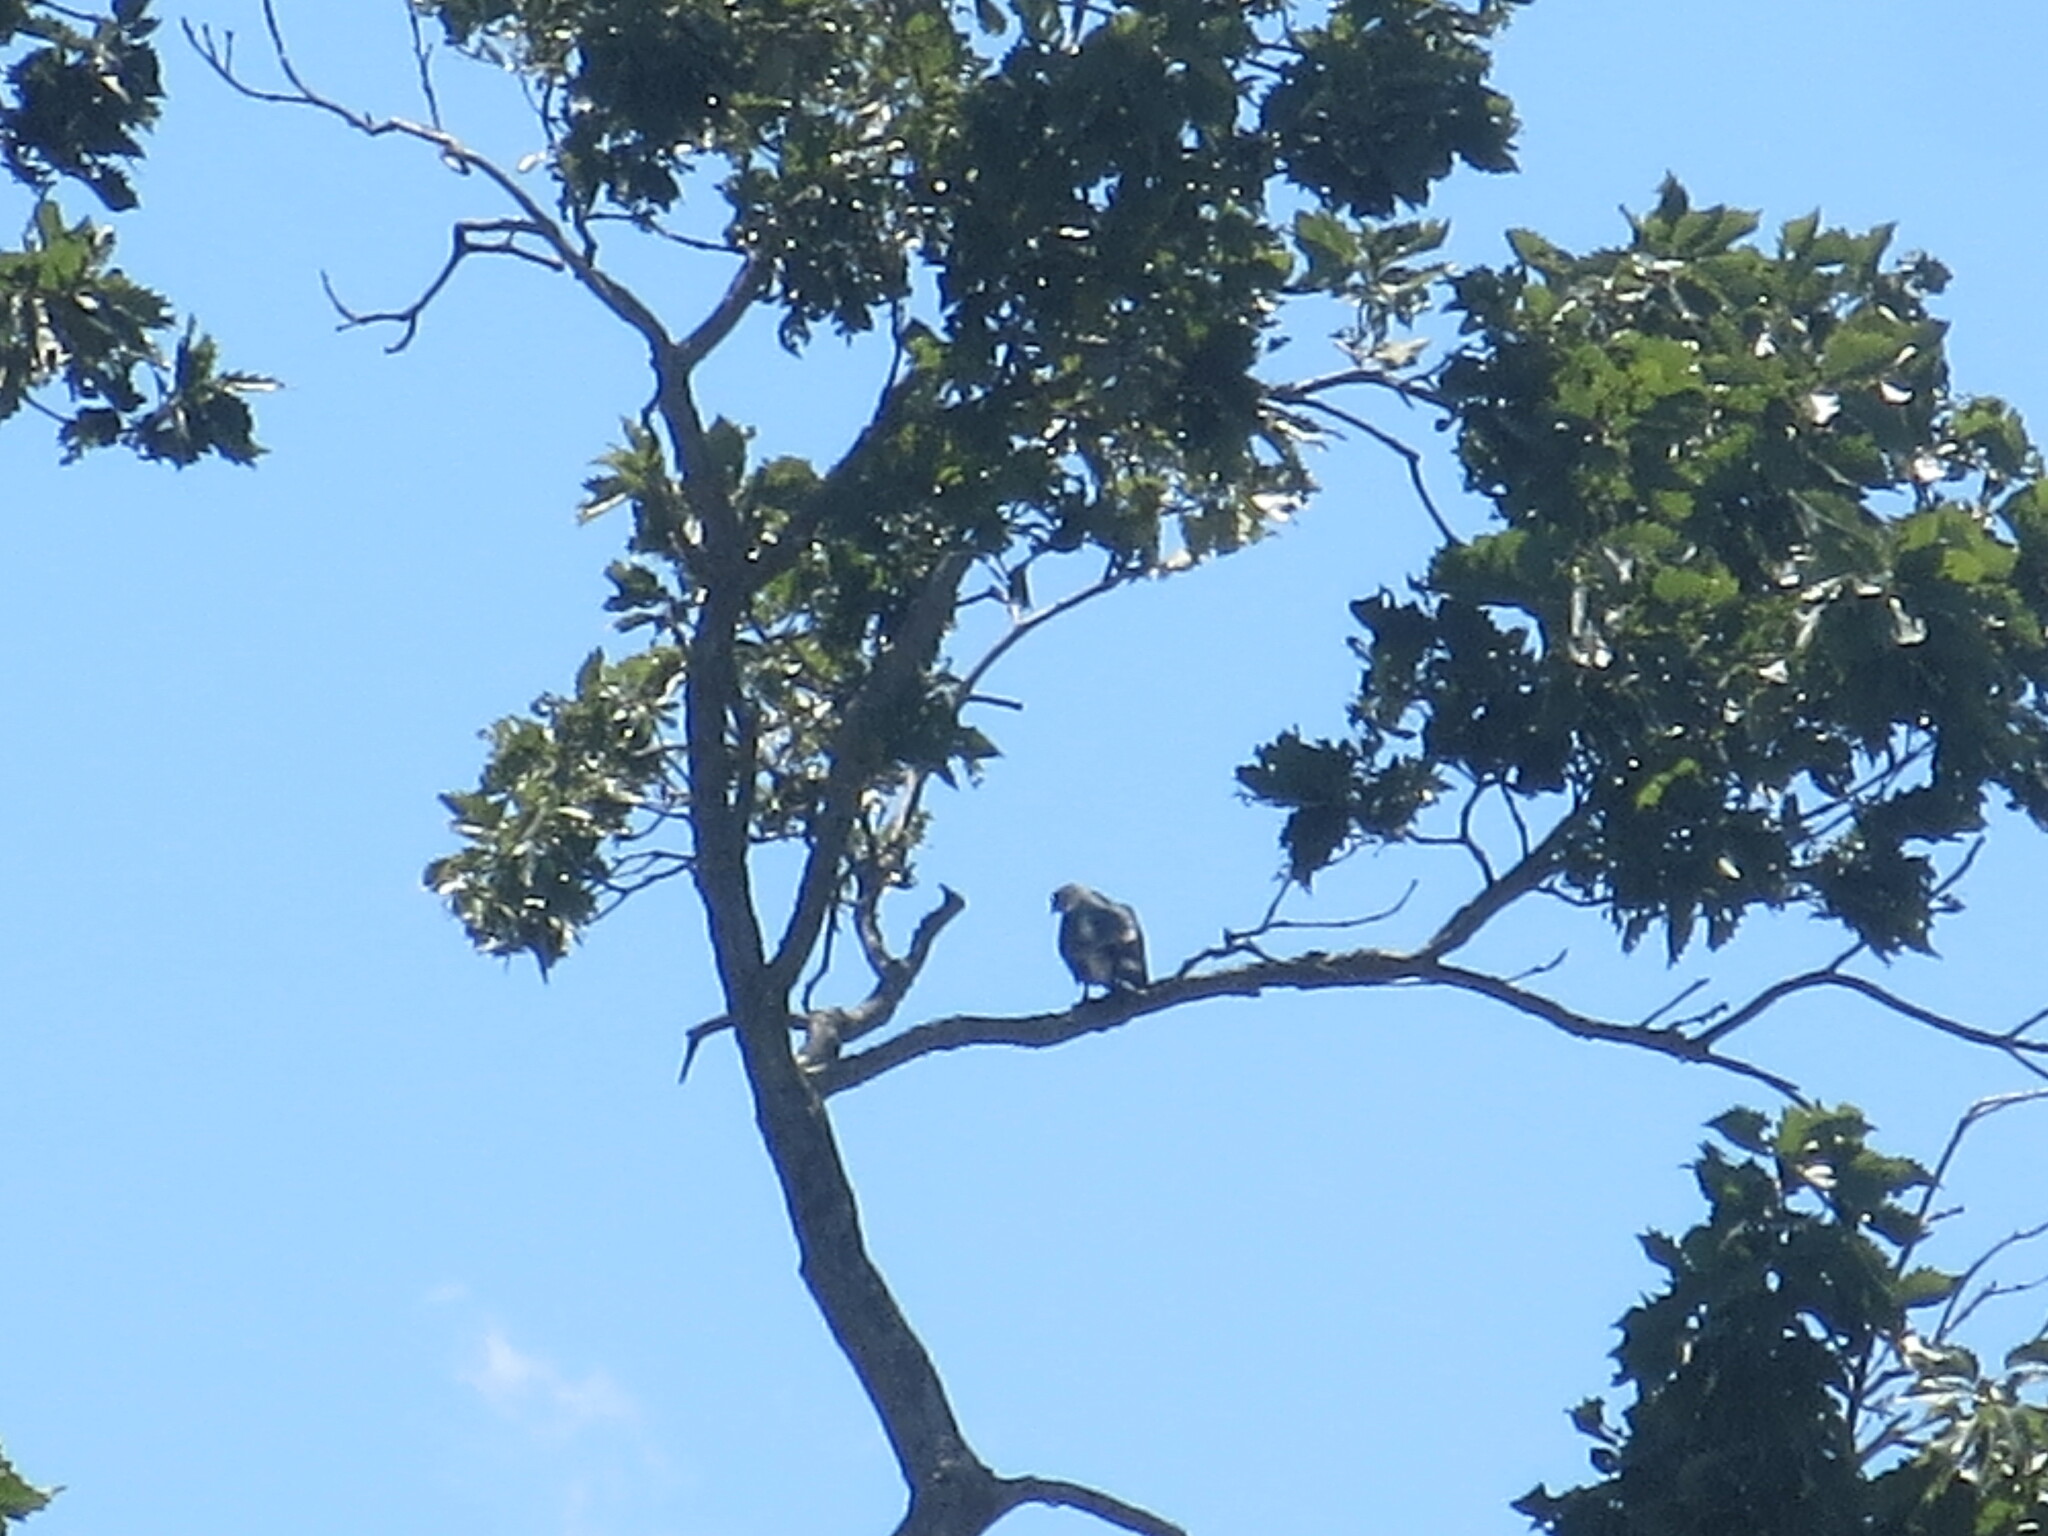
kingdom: Animalia
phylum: Chordata
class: Aves
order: Accipitriformes
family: Accipitridae
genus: Ictinia
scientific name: Ictinia mississippiensis
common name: Mississippi kite
